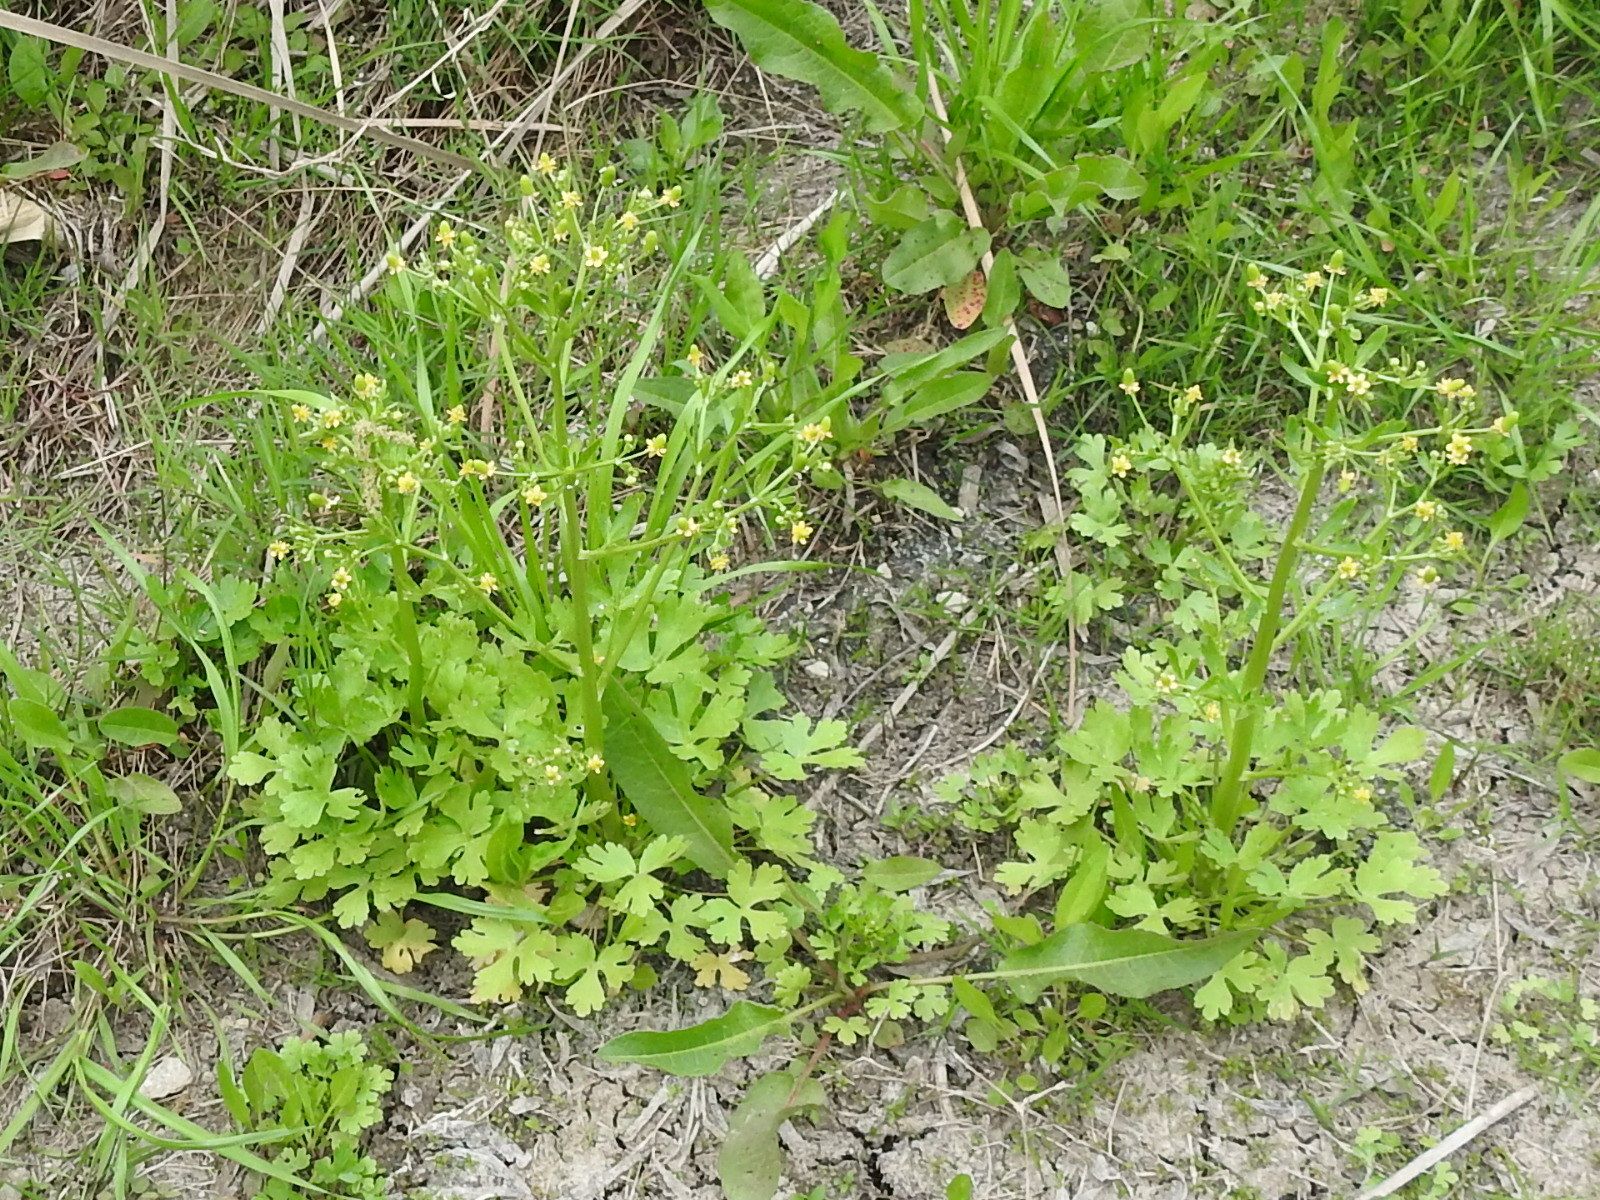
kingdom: Plantae
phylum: Tracheophyta
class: Magnoliopsida
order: Ranunculales
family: Ranunculaceae
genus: Ranunculus
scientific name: Ranunculus sceleratus
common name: Celery-leaved buttercup
